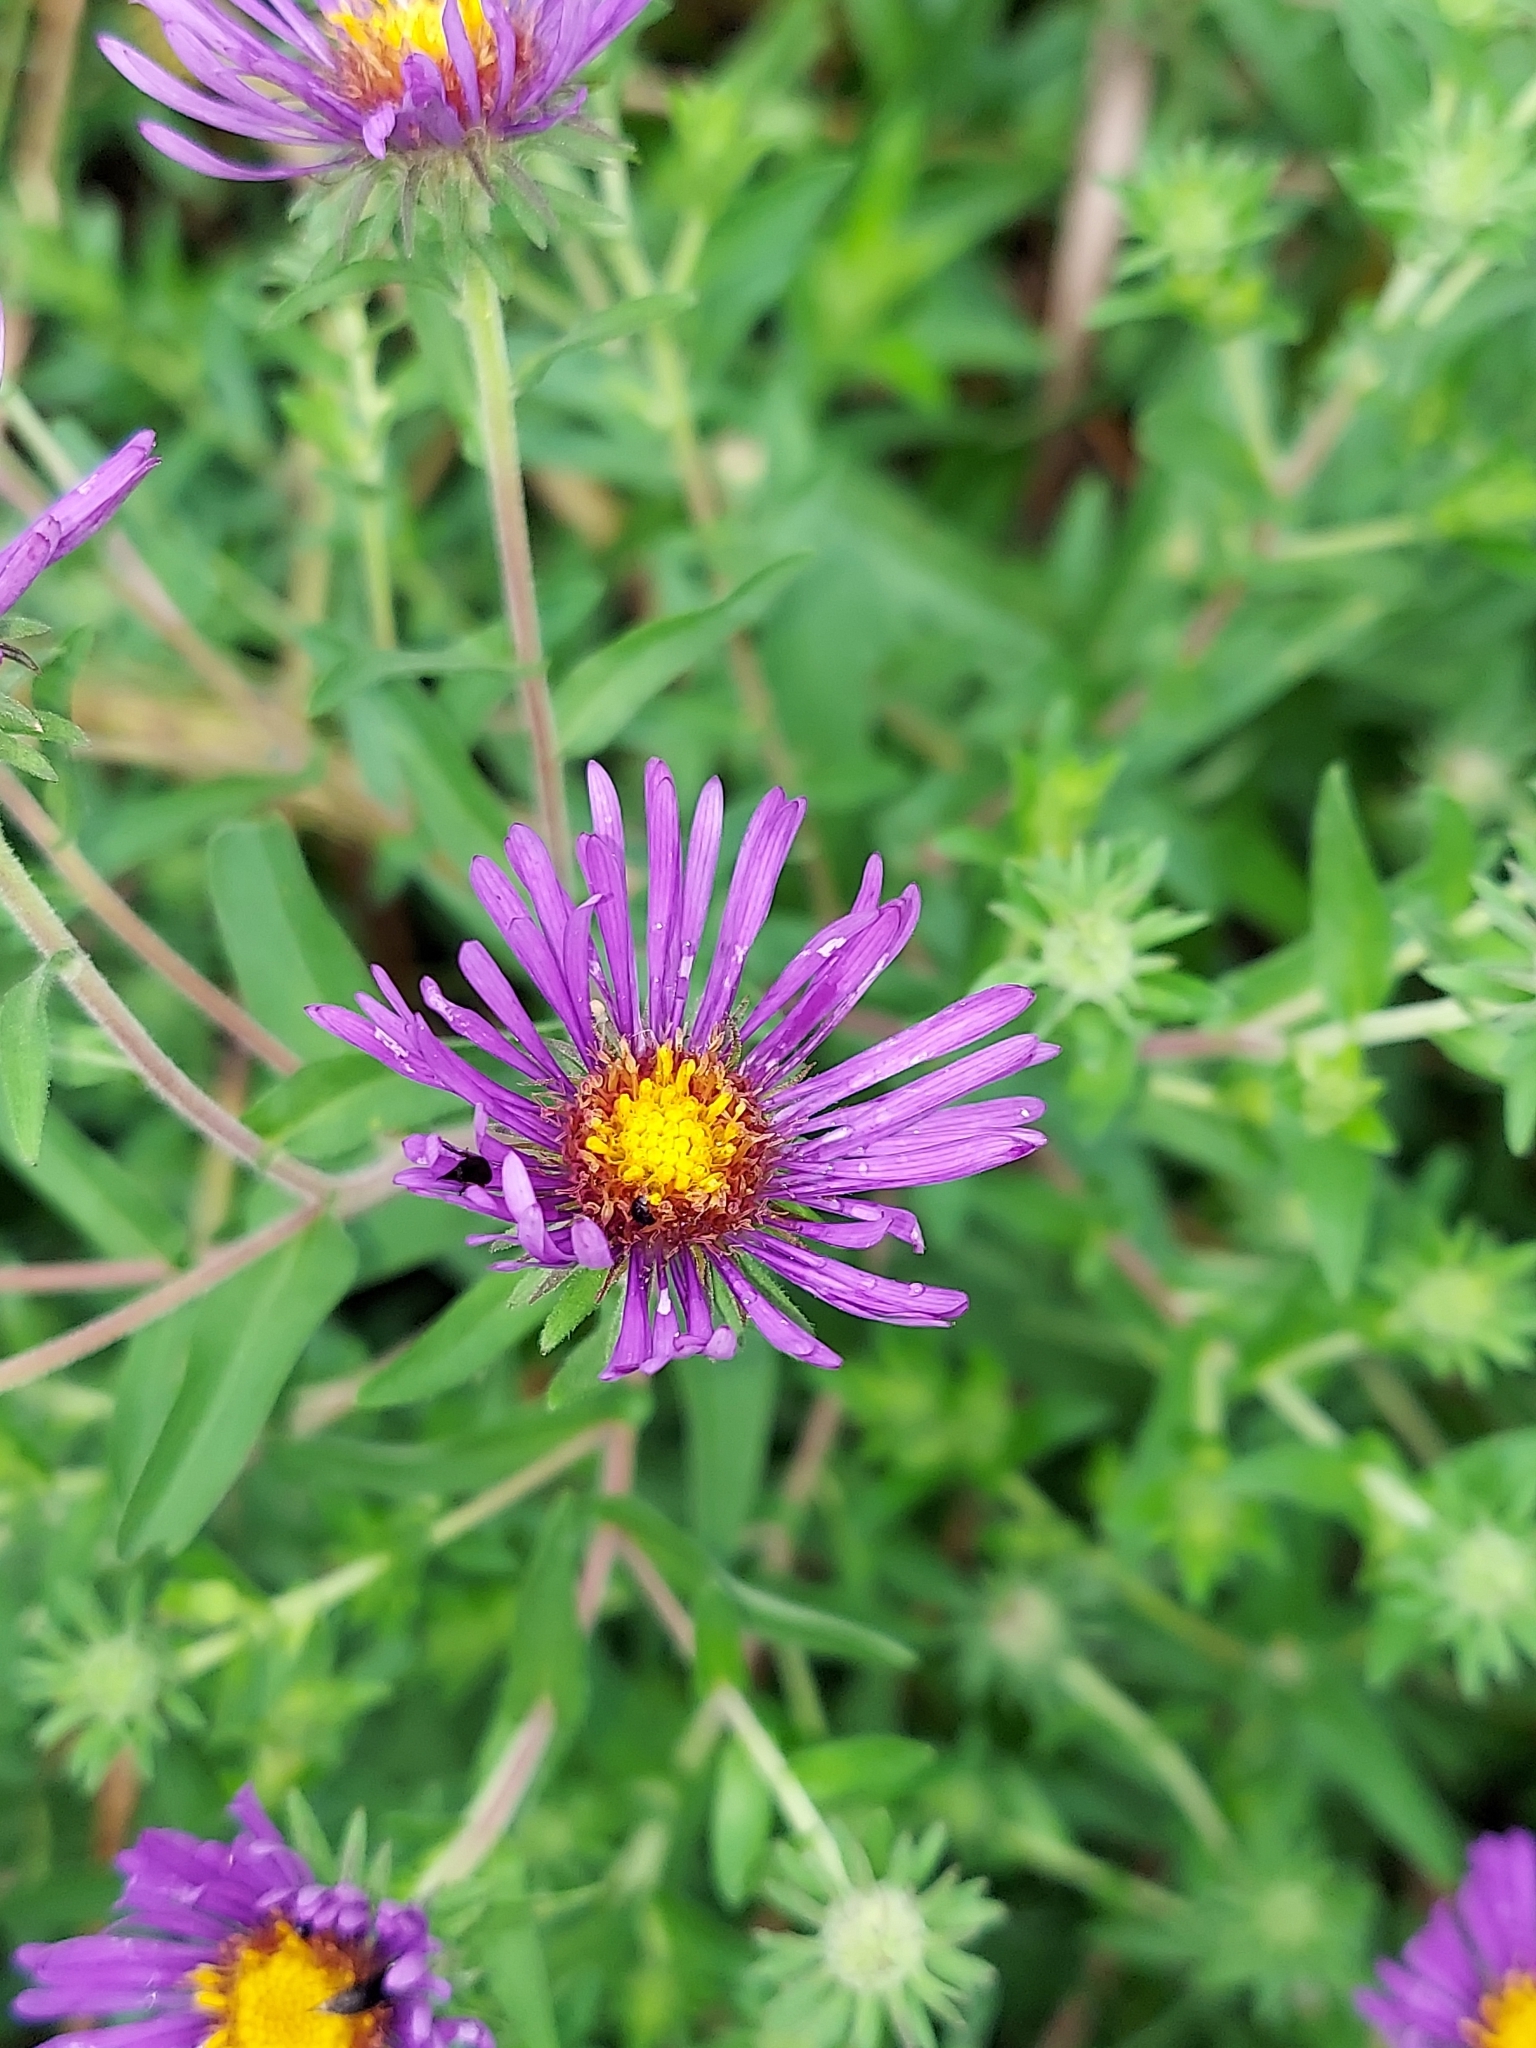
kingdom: Plantae
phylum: Tracheophyta
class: Magnoliopsida
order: Asterales
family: Asteraceae
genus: Symphyotrichum
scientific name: Symphyotrichum novae-angliae
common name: Michaelmas daisy
